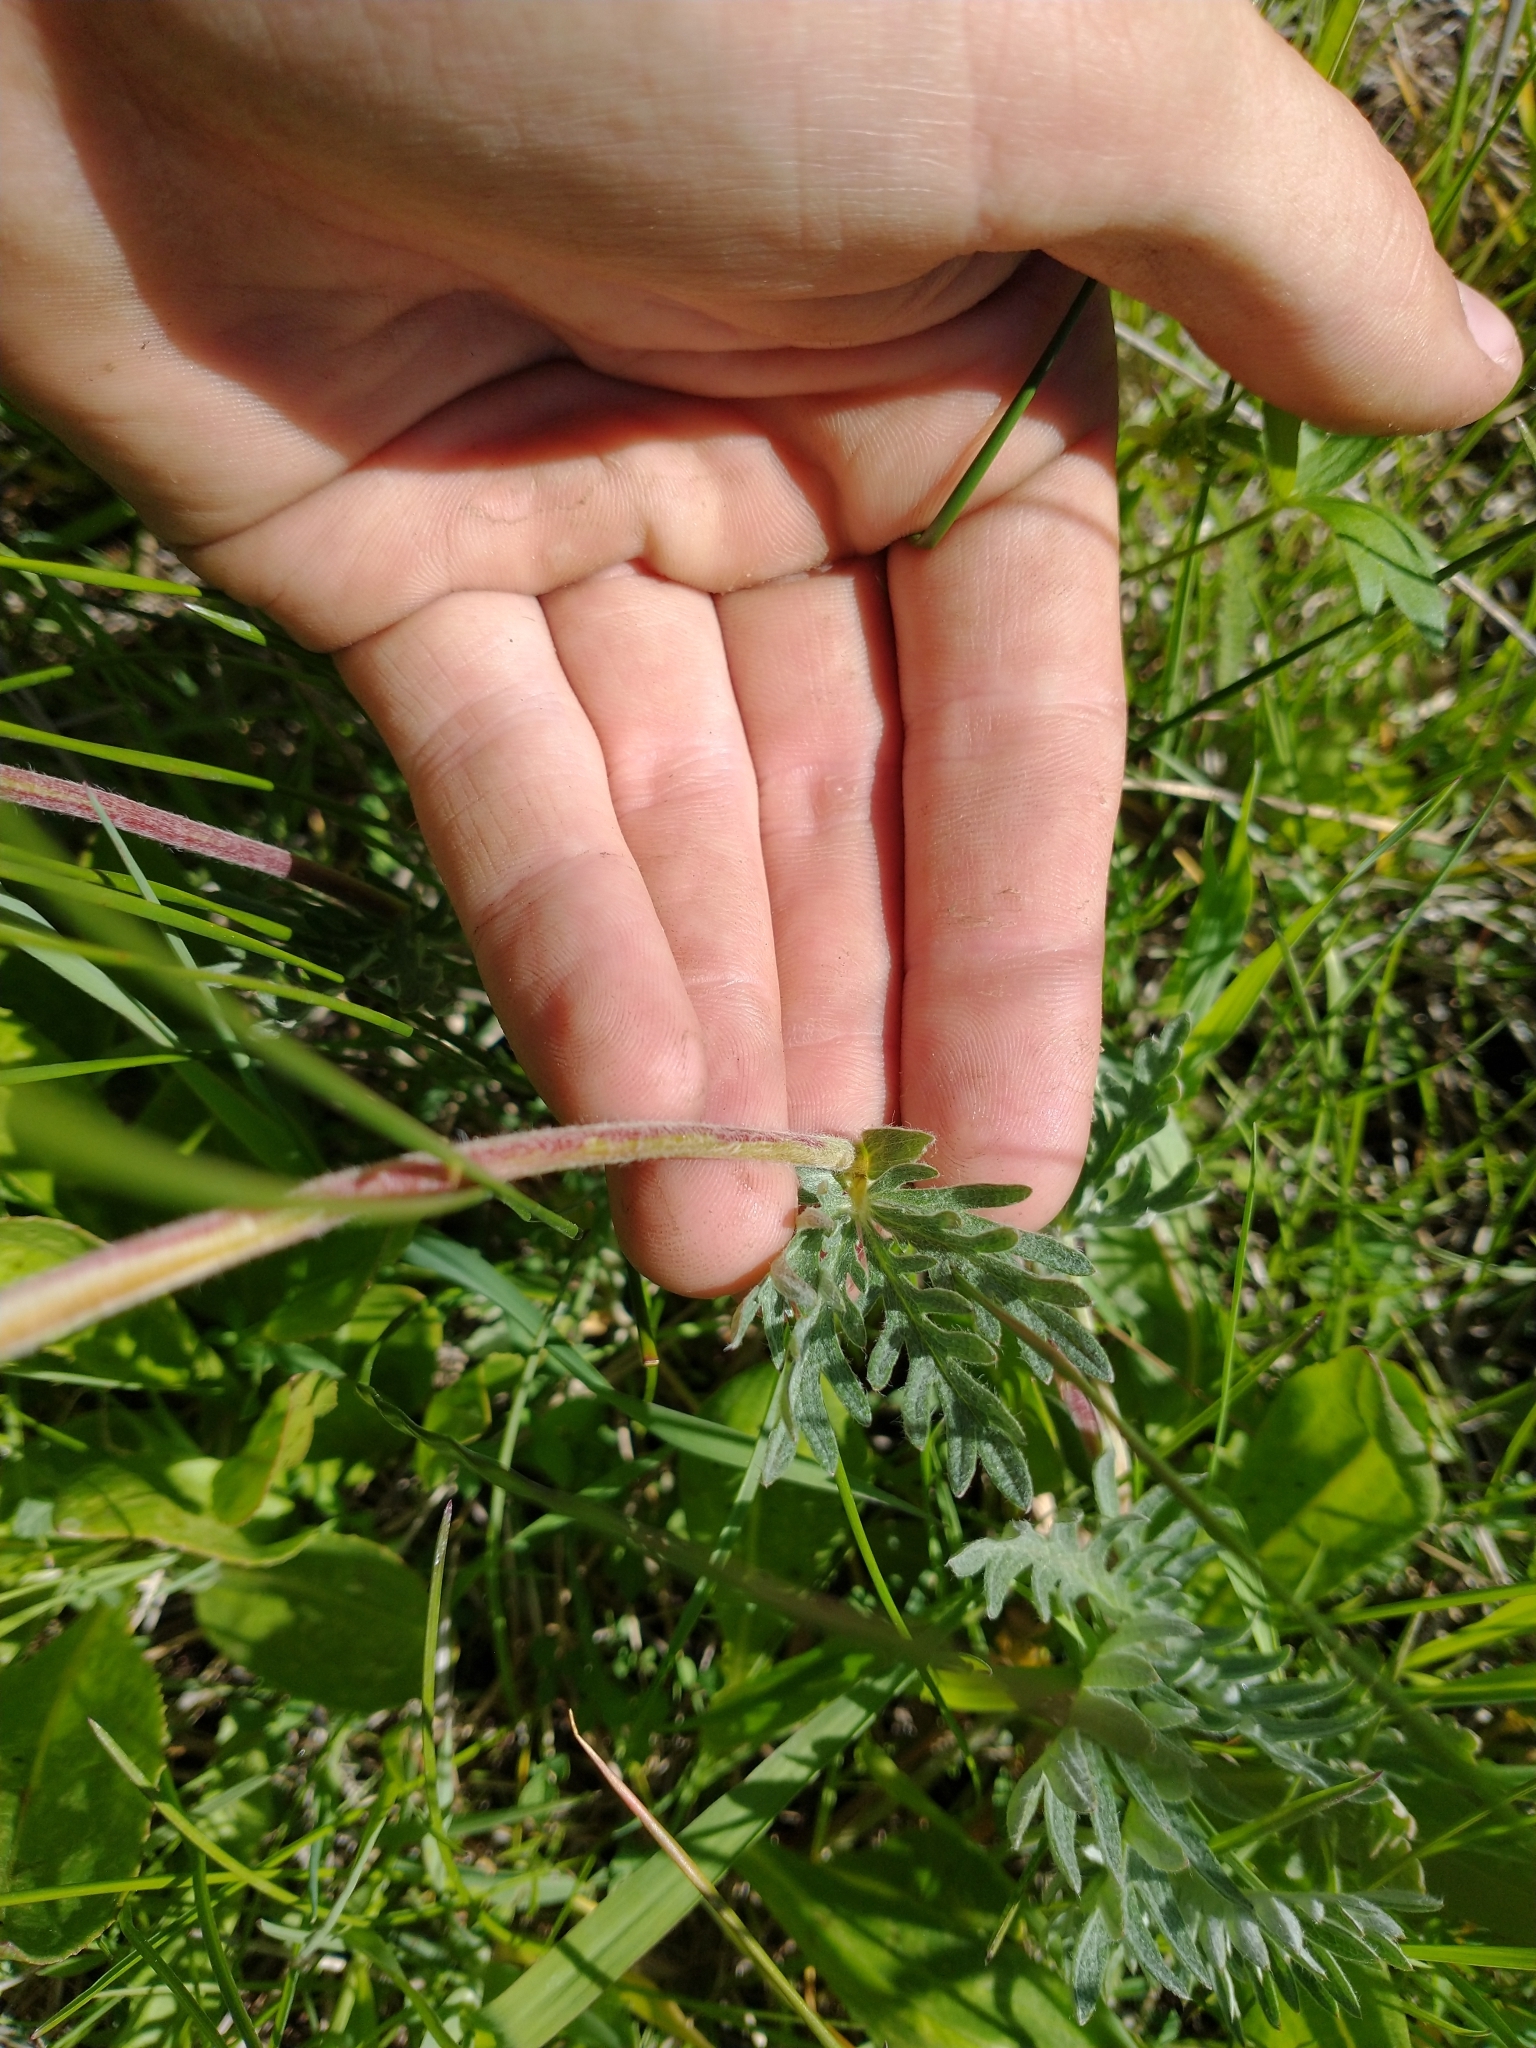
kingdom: Plantae
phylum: Tracheophyta
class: Magnoliopsida
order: Rosales
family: Rosaceae
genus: Potentilla
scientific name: Potentilla gracilis
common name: Graceful cinquefoil
